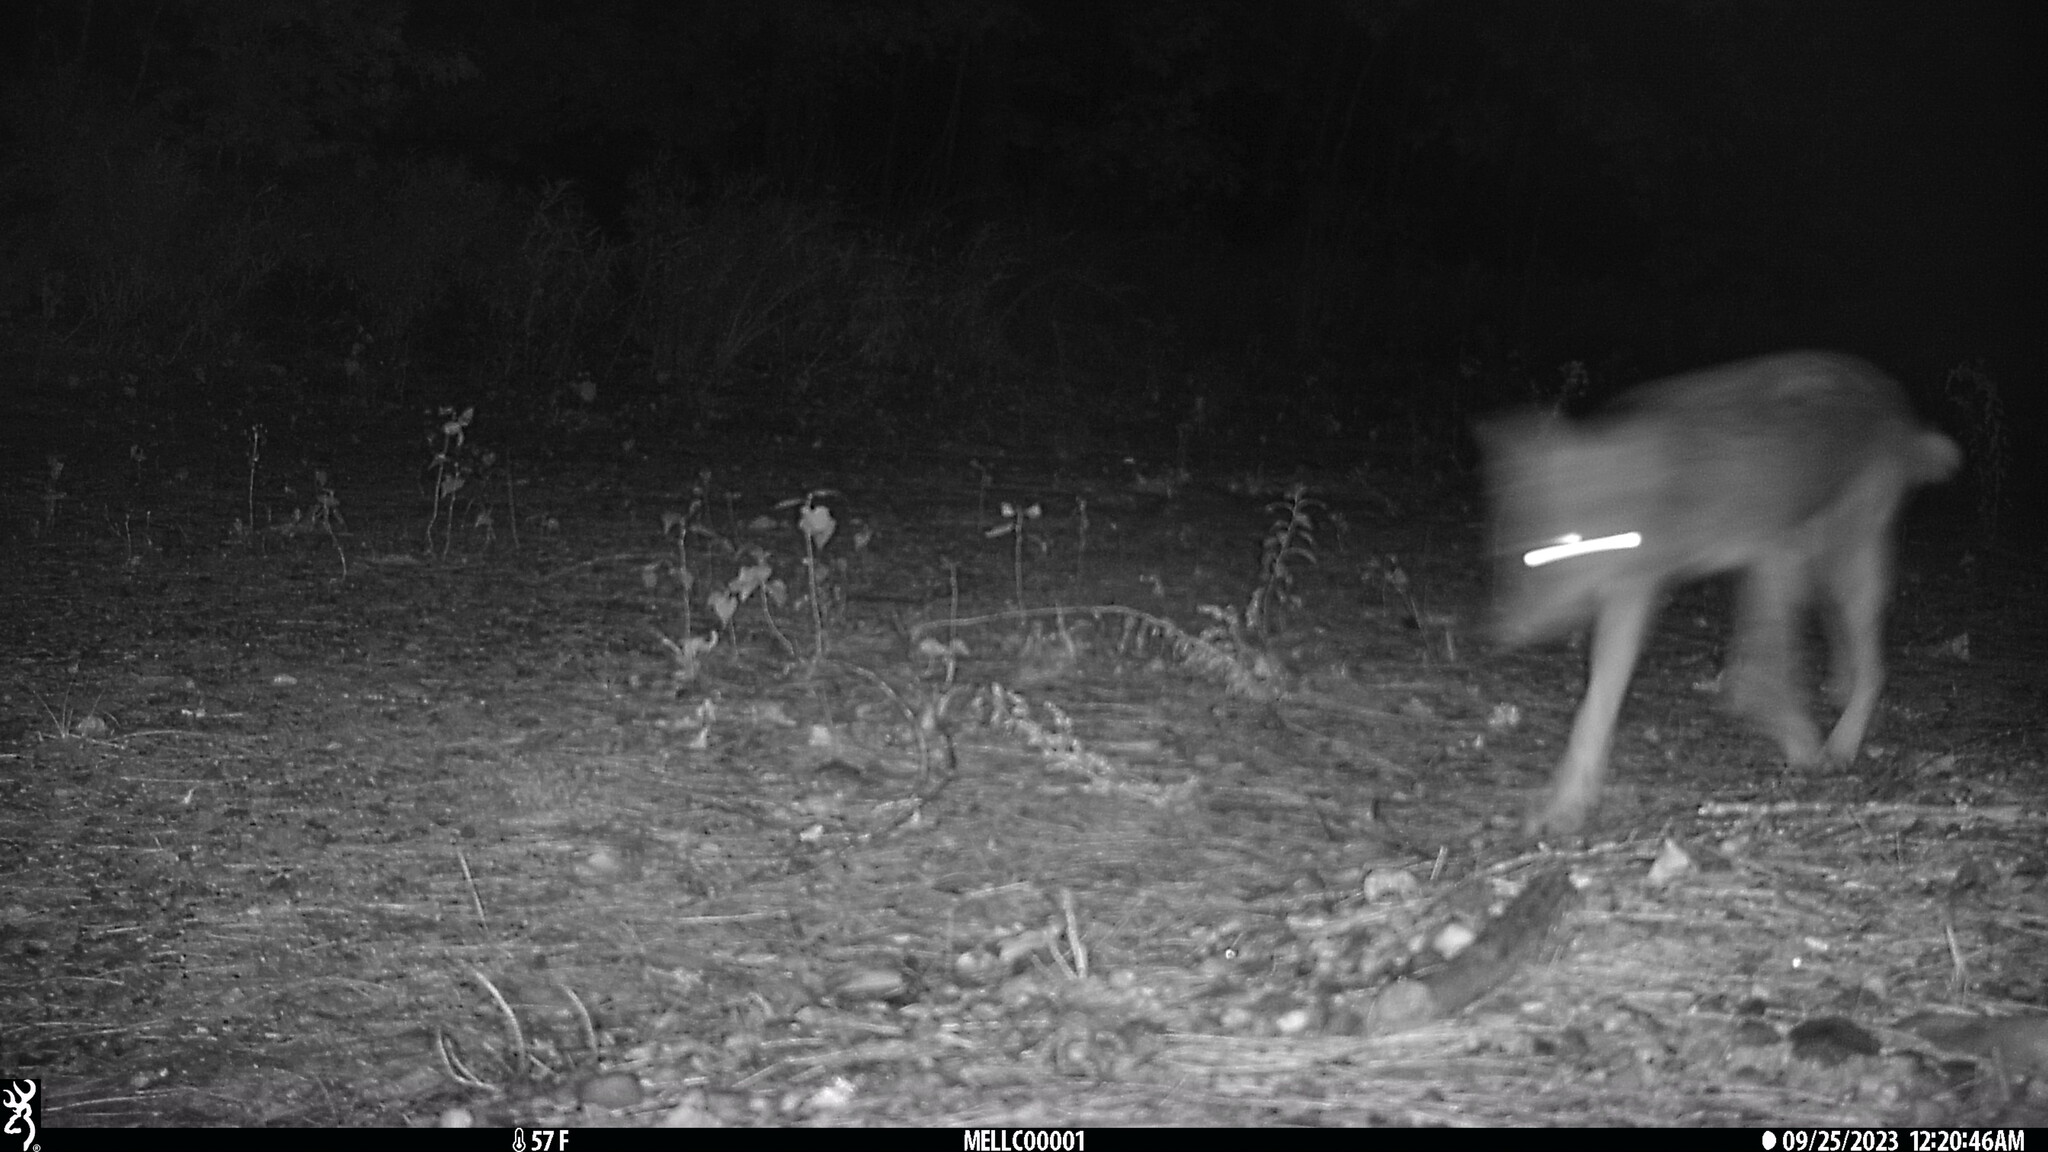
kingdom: Animalia
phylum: Chordata
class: Mammalia
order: Carnivora
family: Canidae
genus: Canis
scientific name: Canis latrans
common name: Coyote
